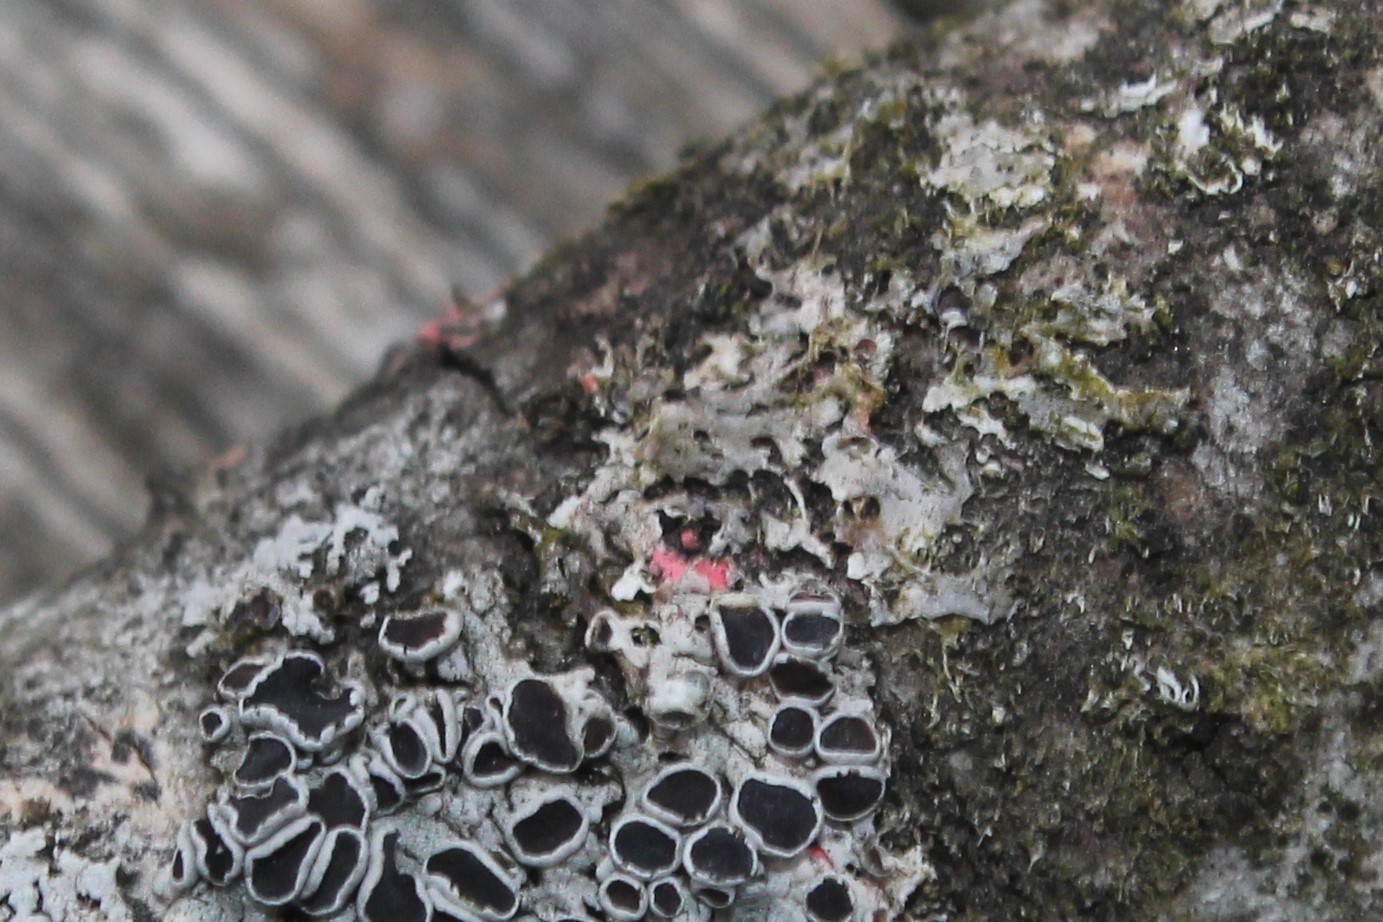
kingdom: Fungi
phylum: Ascomycota
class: Sordariomycetes
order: Hypocreales
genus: Illosporiopsis
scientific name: Illosporiopsis christiansenii
